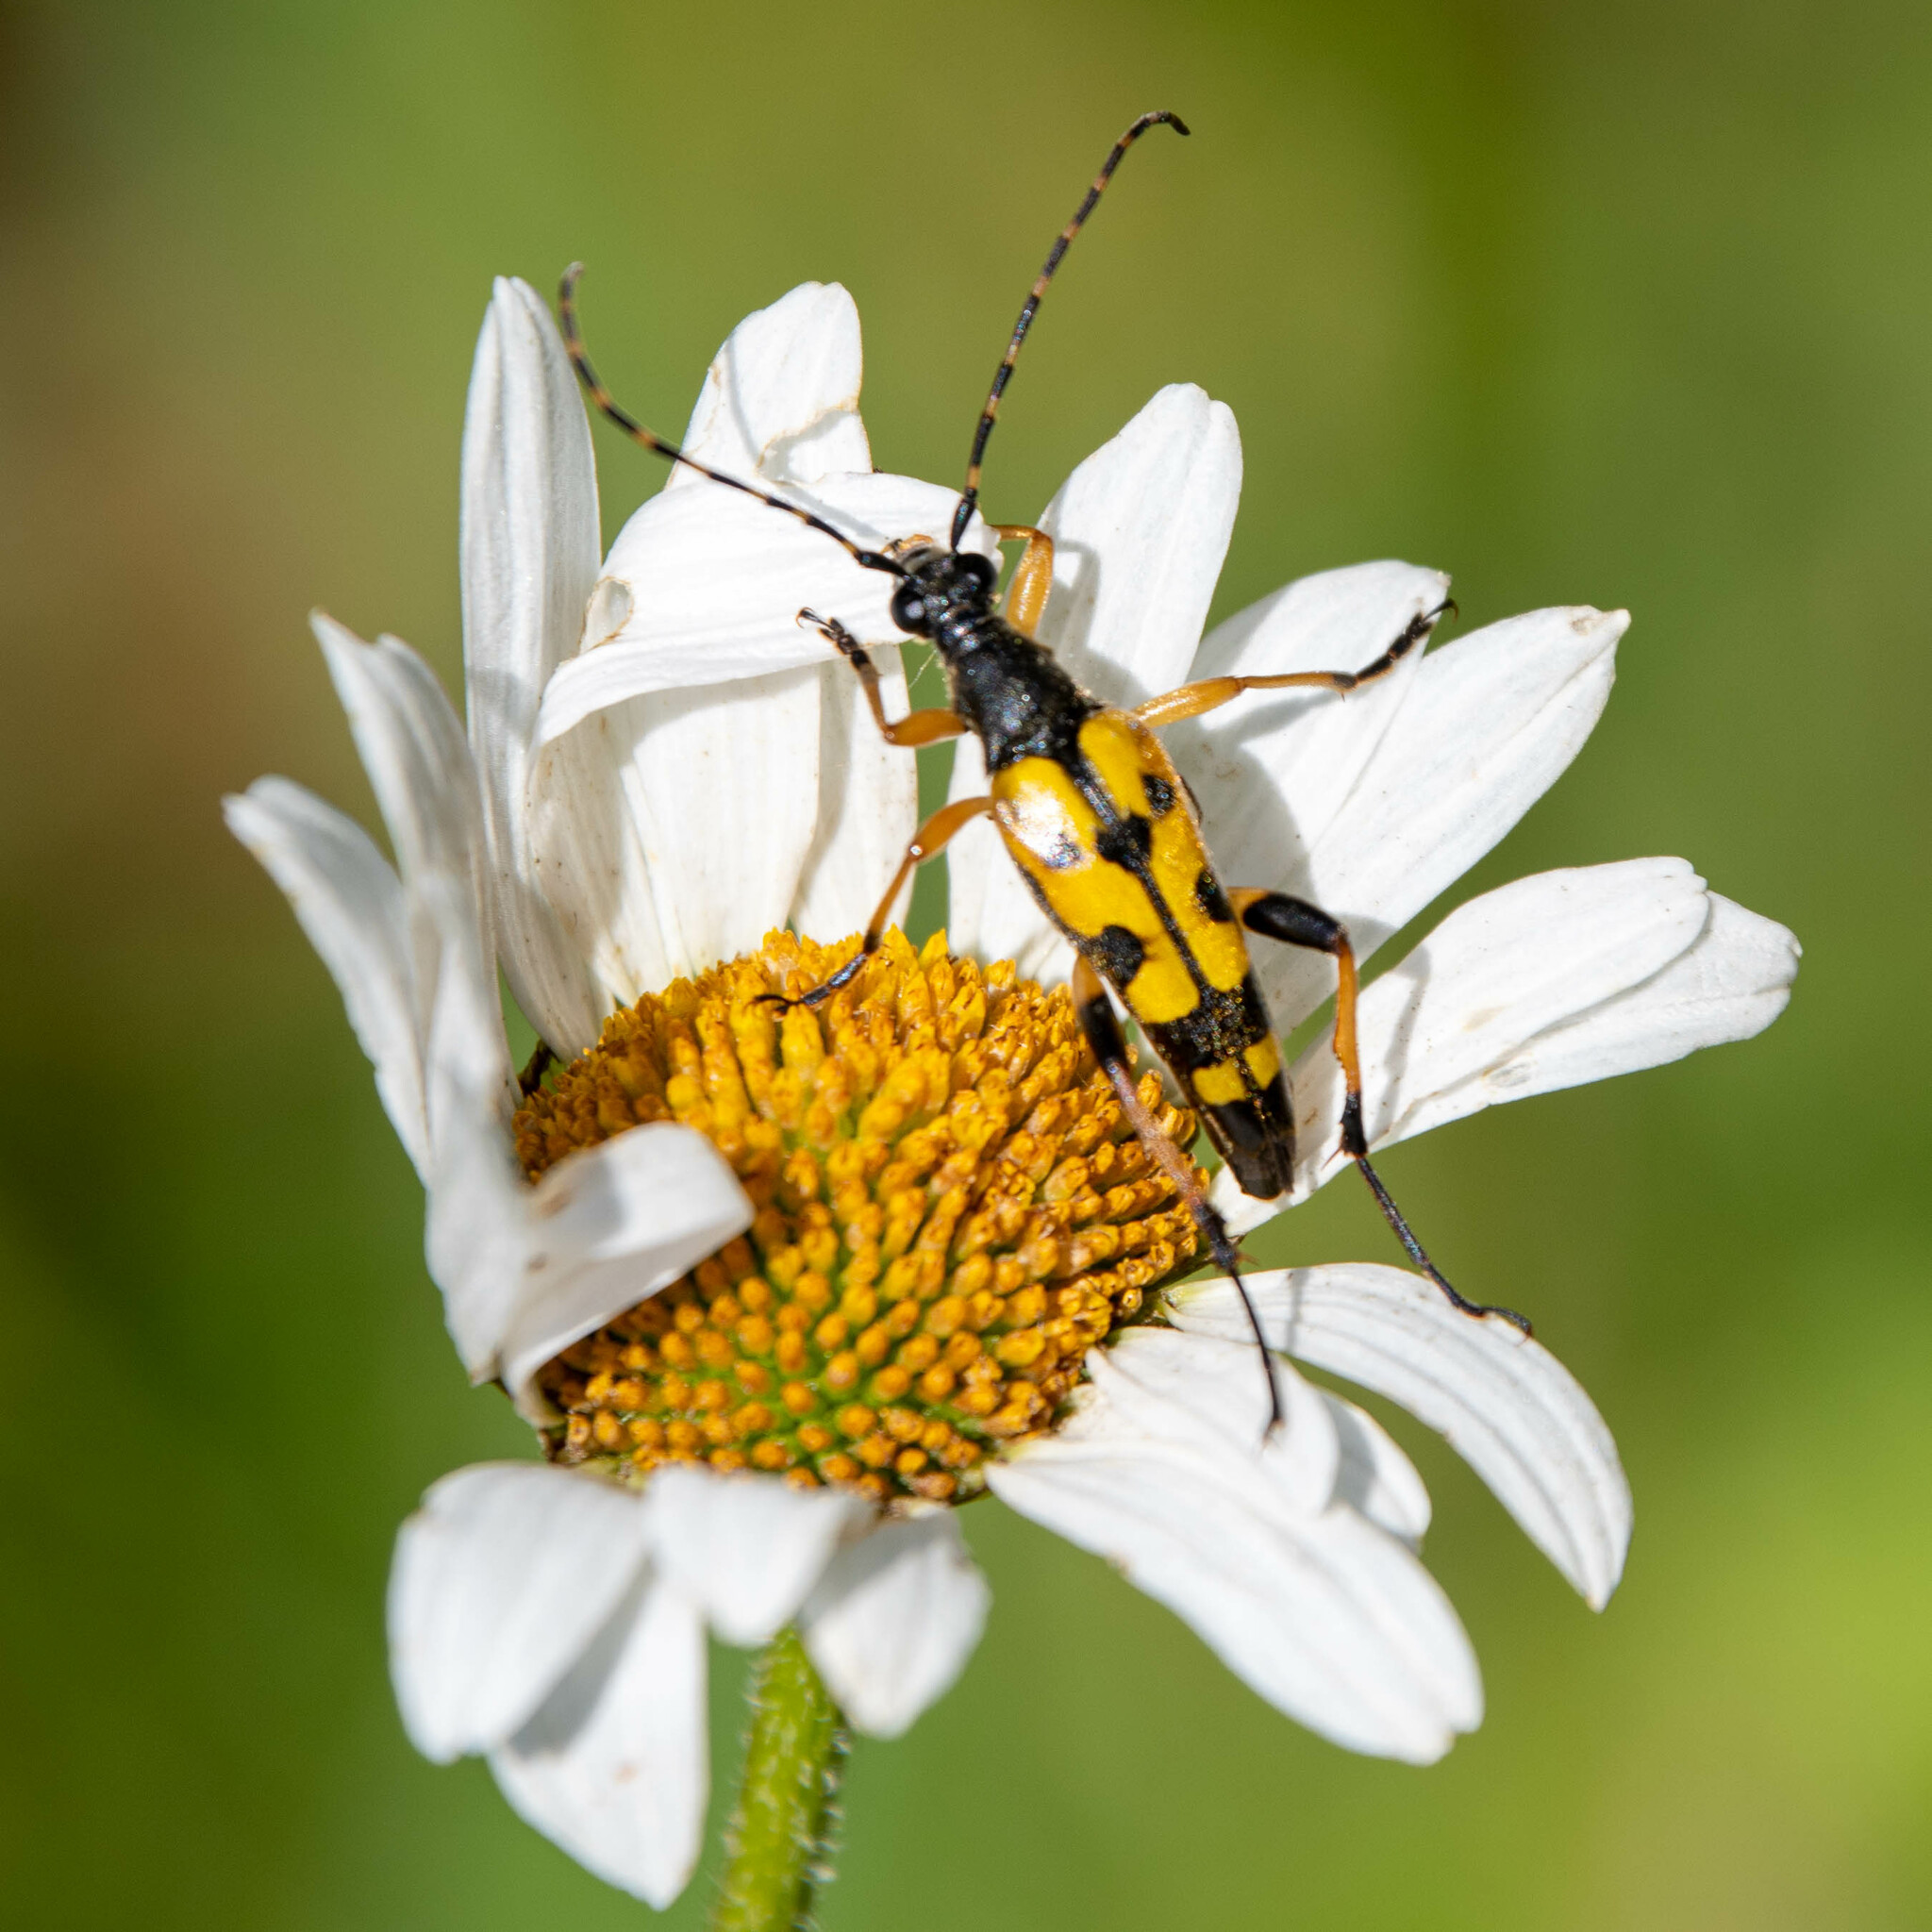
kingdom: Animalia
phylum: Arthropoda
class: Insecta
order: Coleoptera
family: Cerambycidae
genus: Rutpela
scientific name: Rutpela maculata
